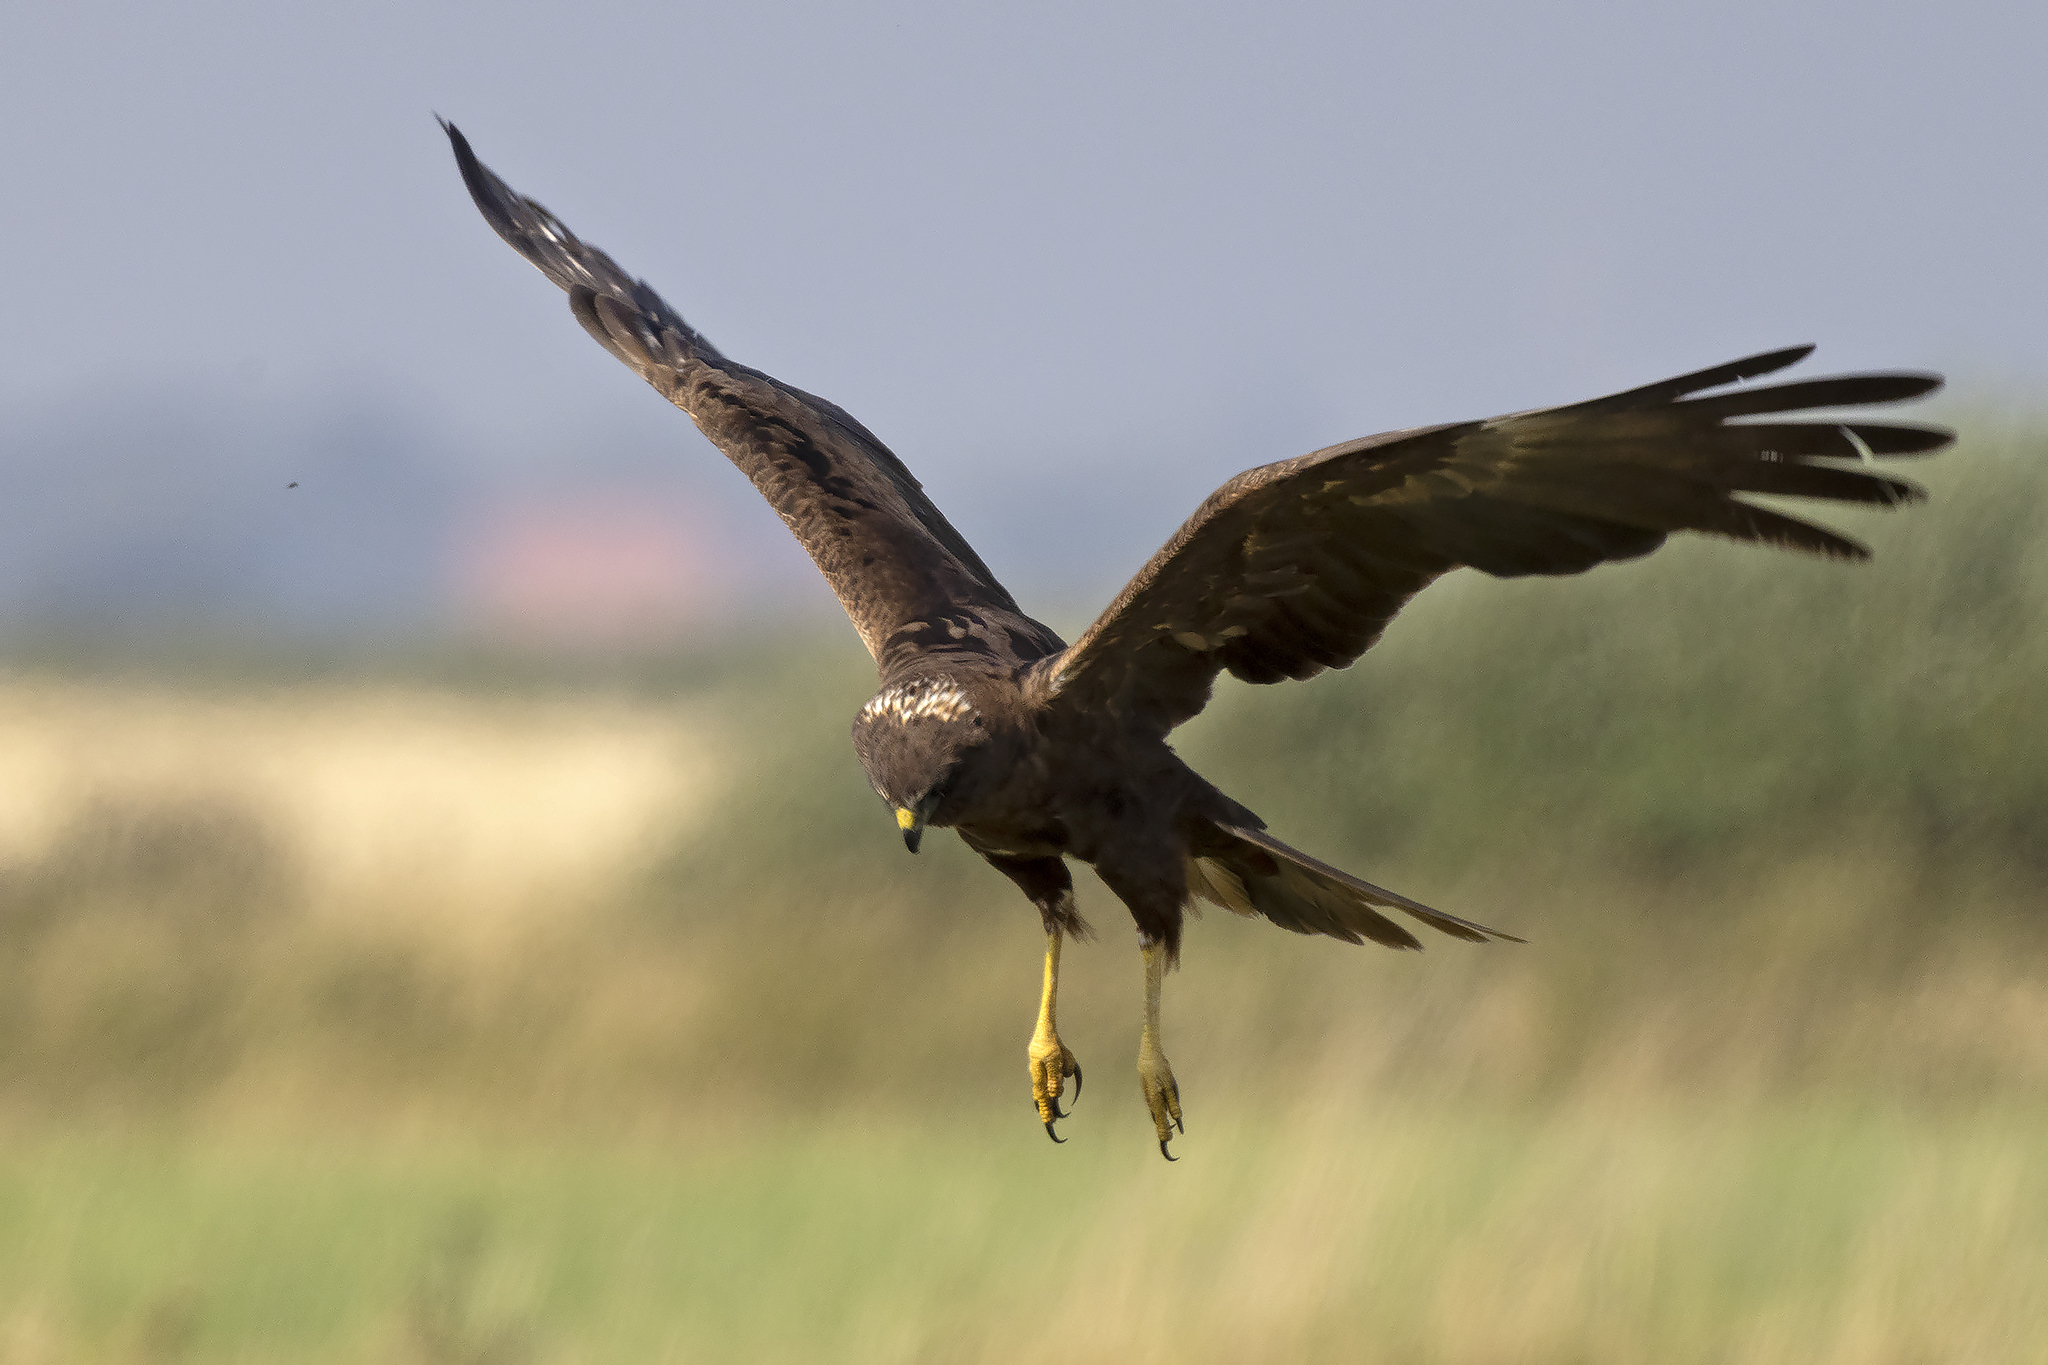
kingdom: Animalia
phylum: Chordata
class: Aves
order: Accipitriformes
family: Accipitridae
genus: Circus
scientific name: Circus aeruginosus
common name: Western marsh harrier
